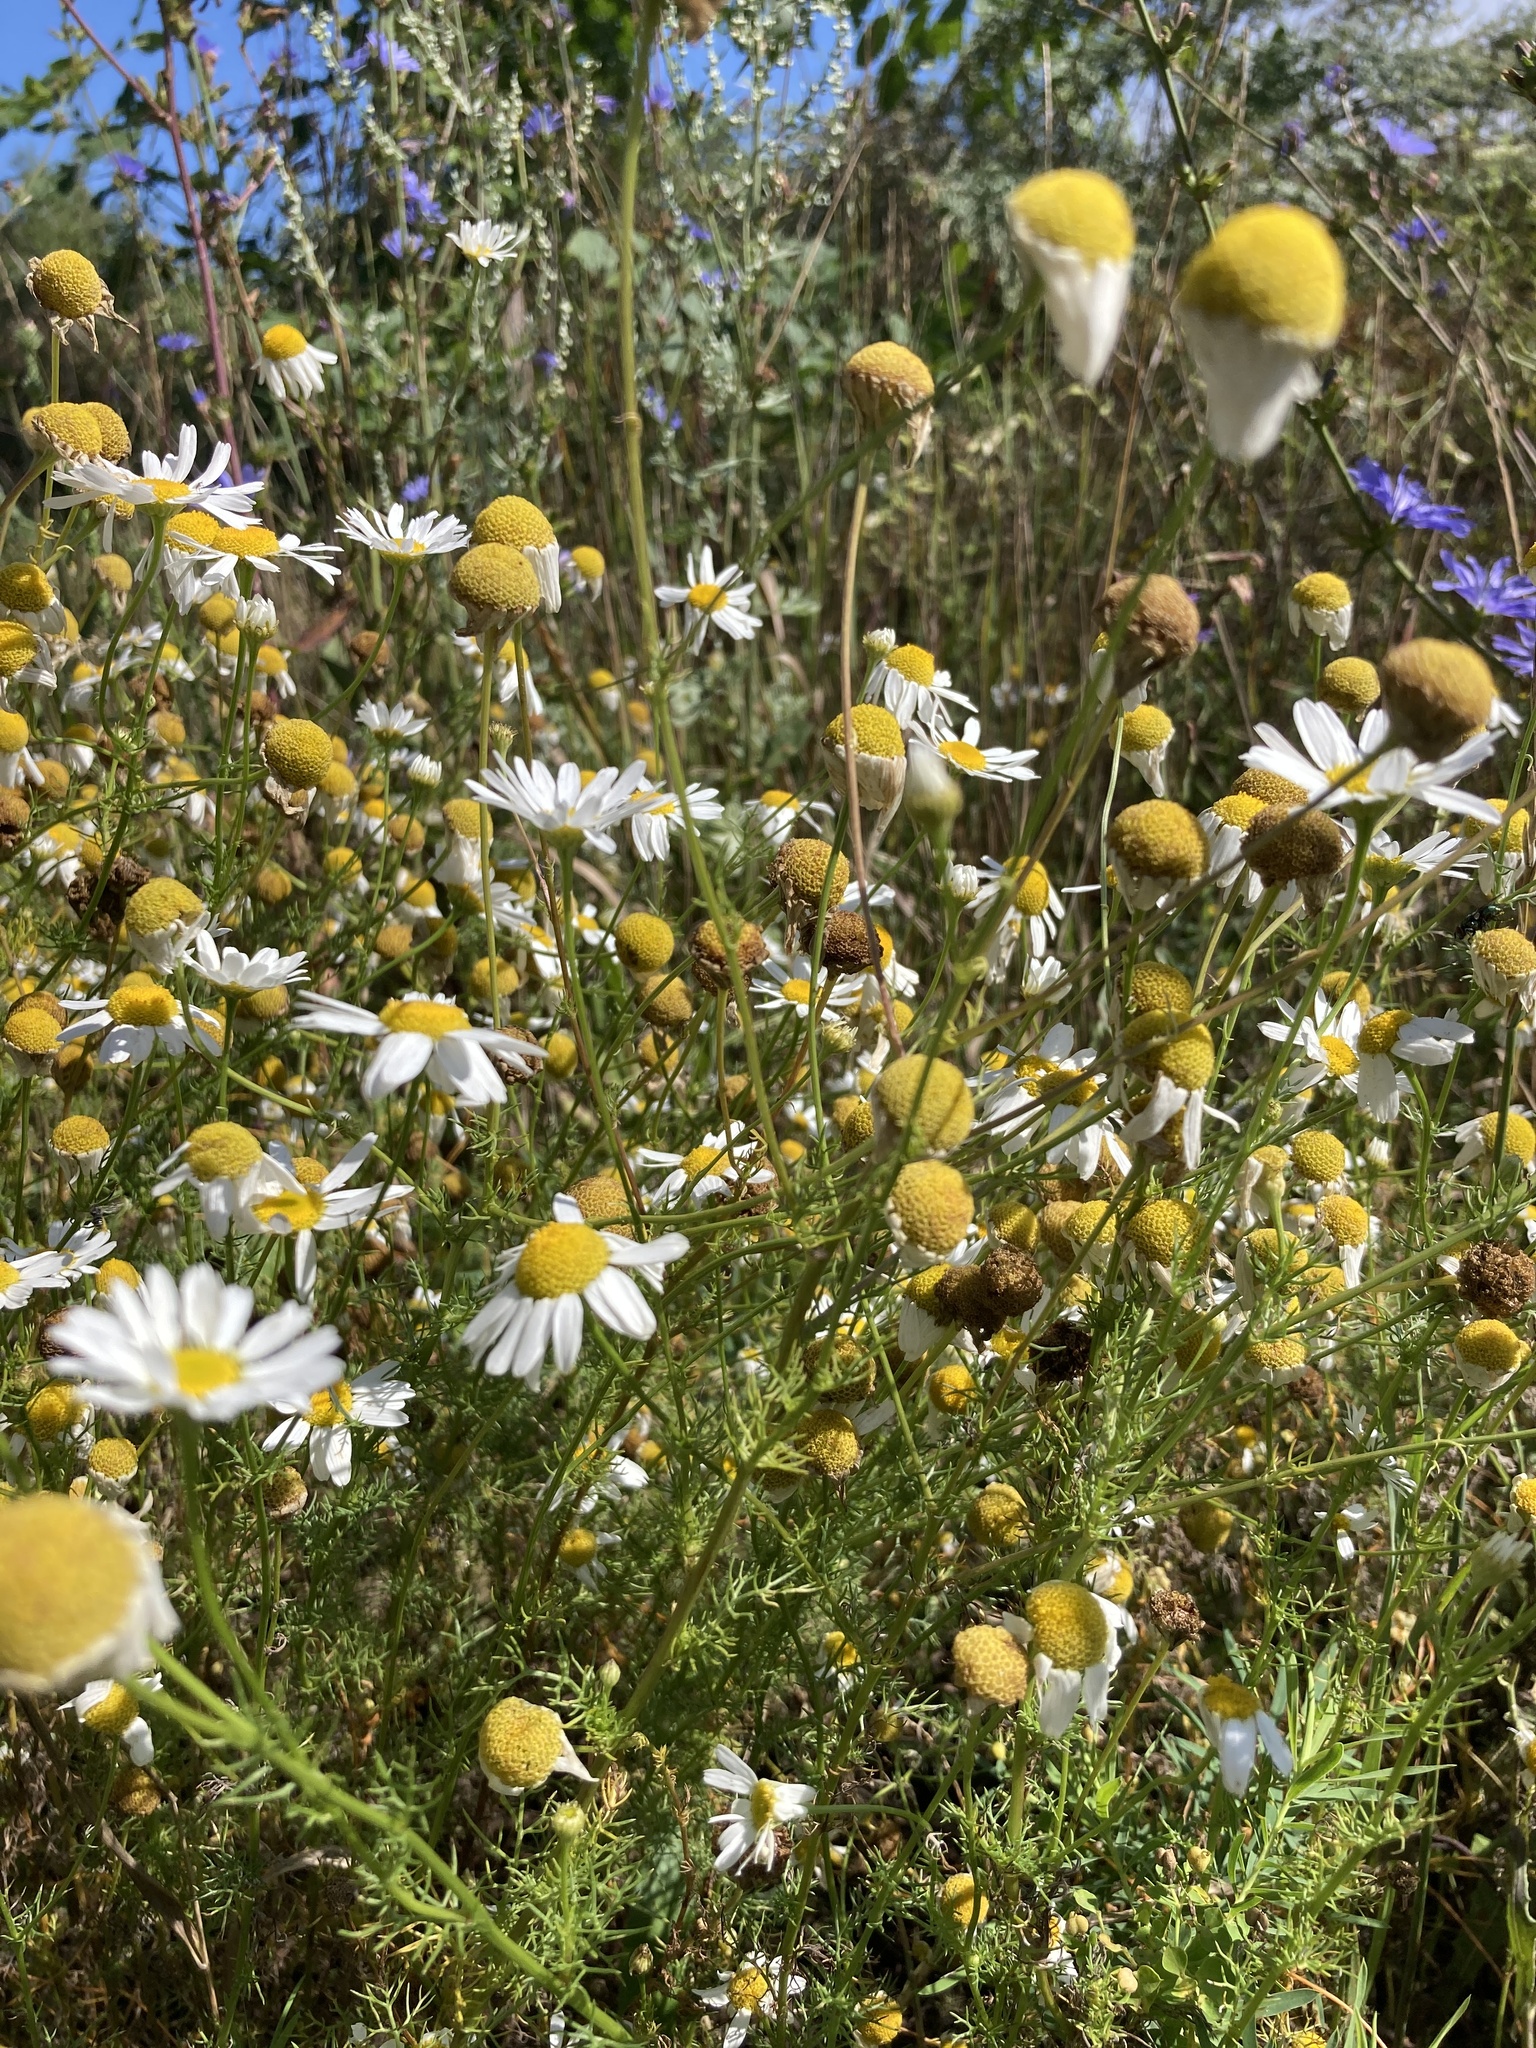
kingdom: Plantae
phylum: Tracheophyta
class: Magnoliopsida
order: Asterales
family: Asteraceae
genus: Tripleurospermum
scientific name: Tripleurospermum inodorum
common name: Scentless mayweed
